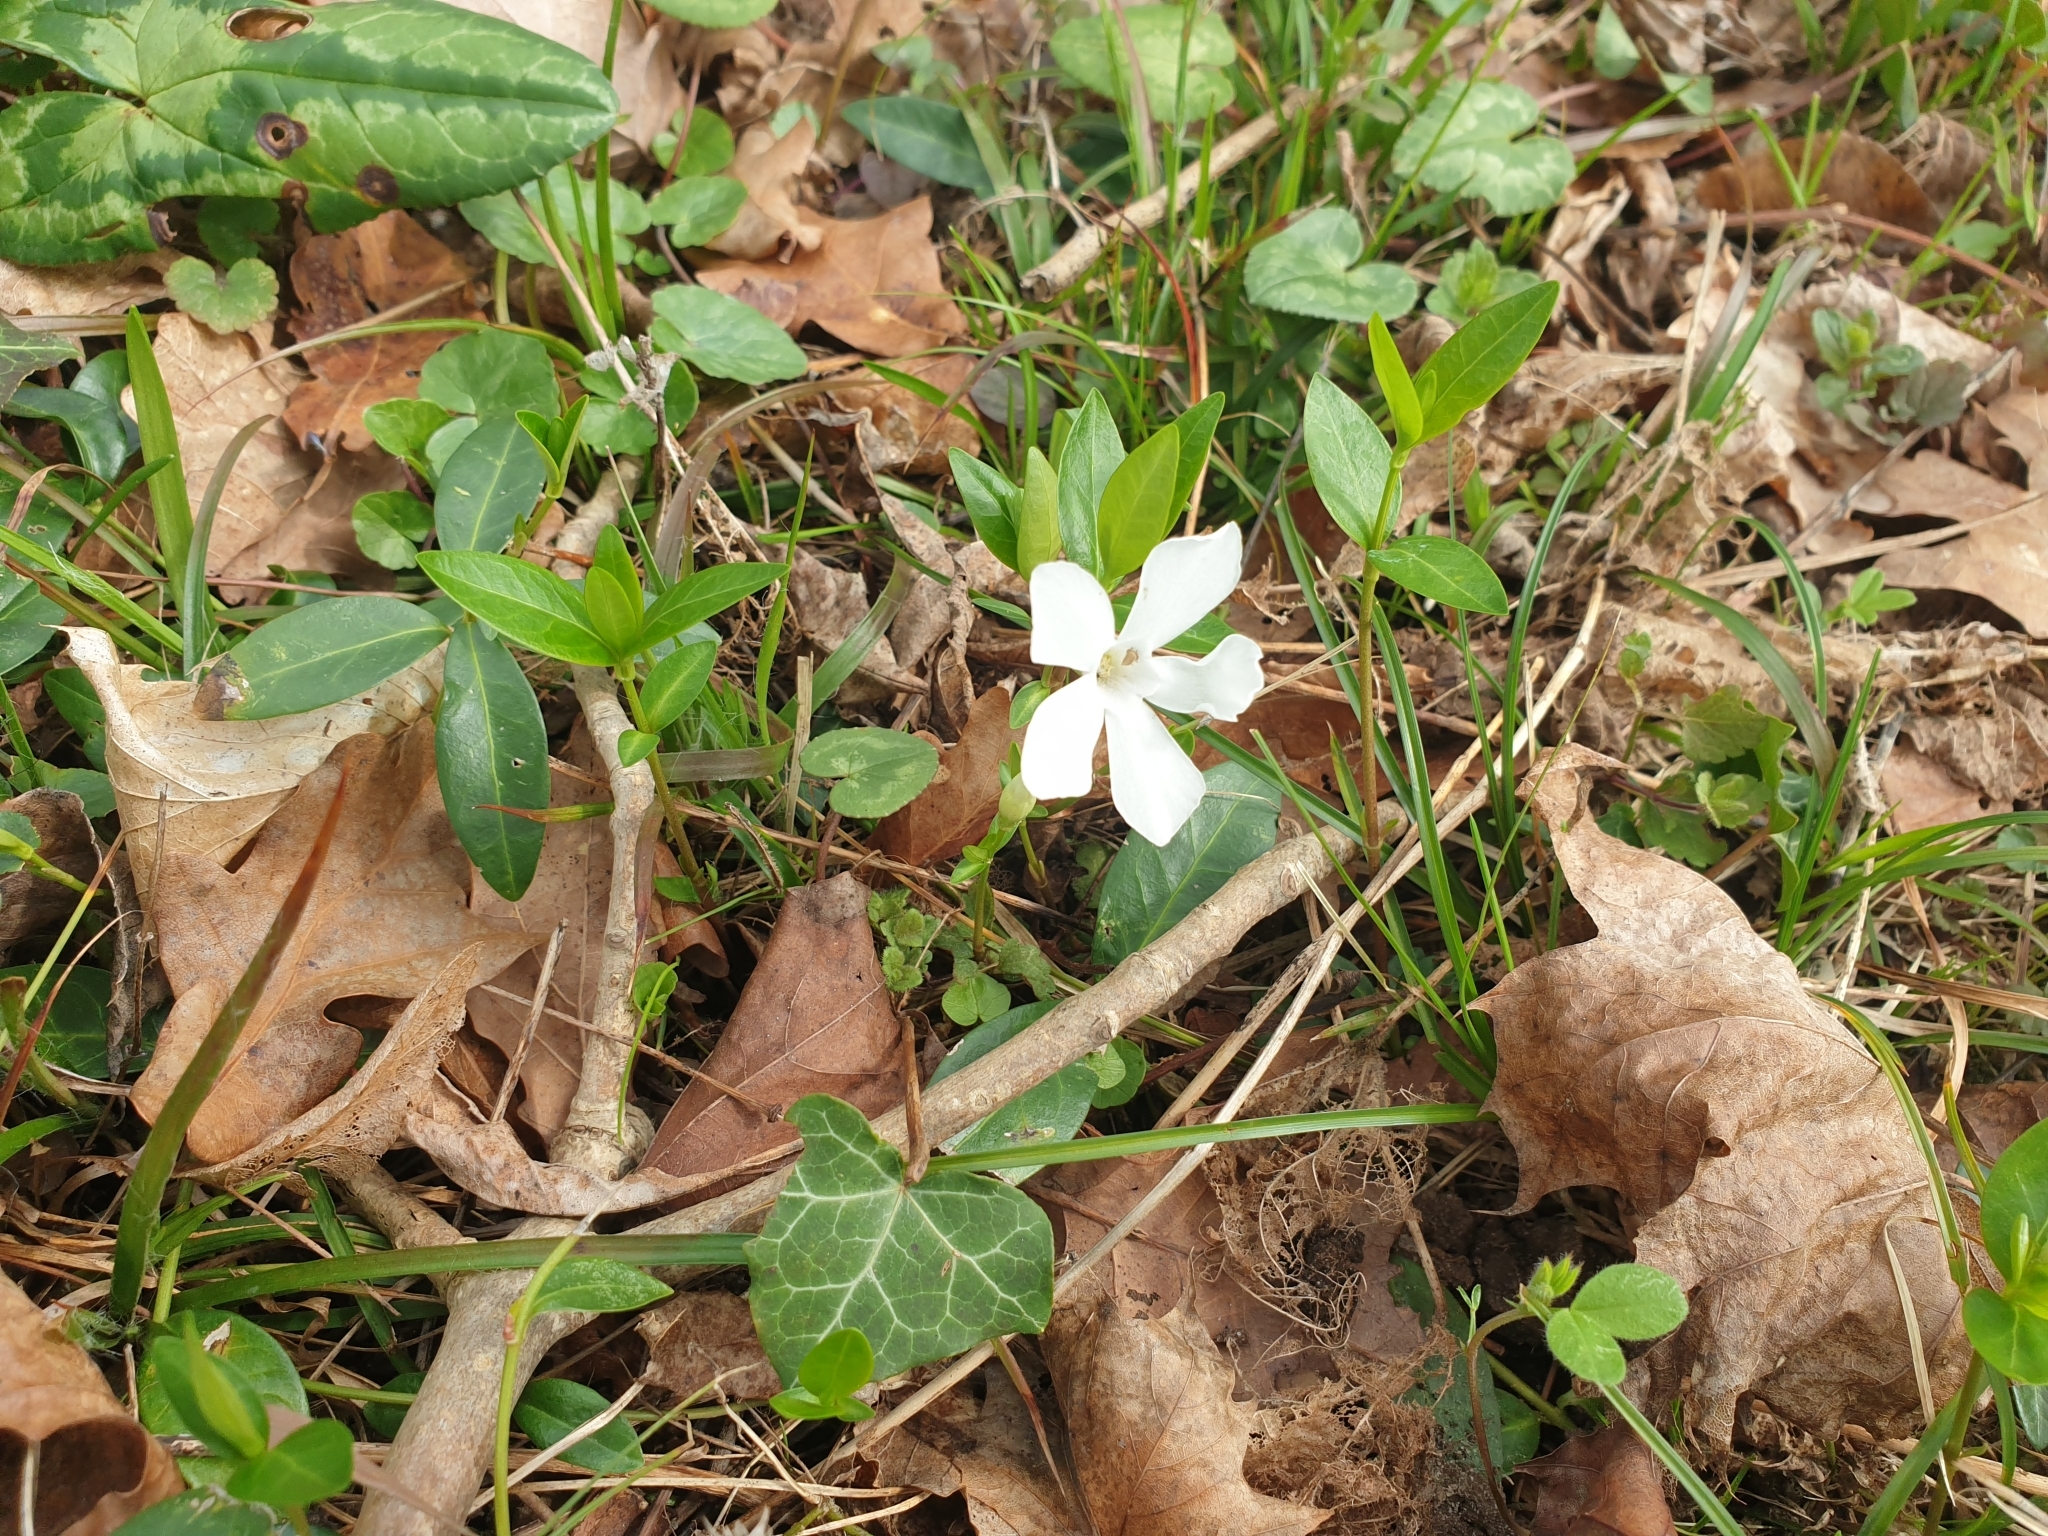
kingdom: Plantae
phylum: Tracheophyta
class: Magnoliopsida
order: Gentianales
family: Apocynaceae
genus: Vinca
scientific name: Vinca minor
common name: Lesser periwinkle
